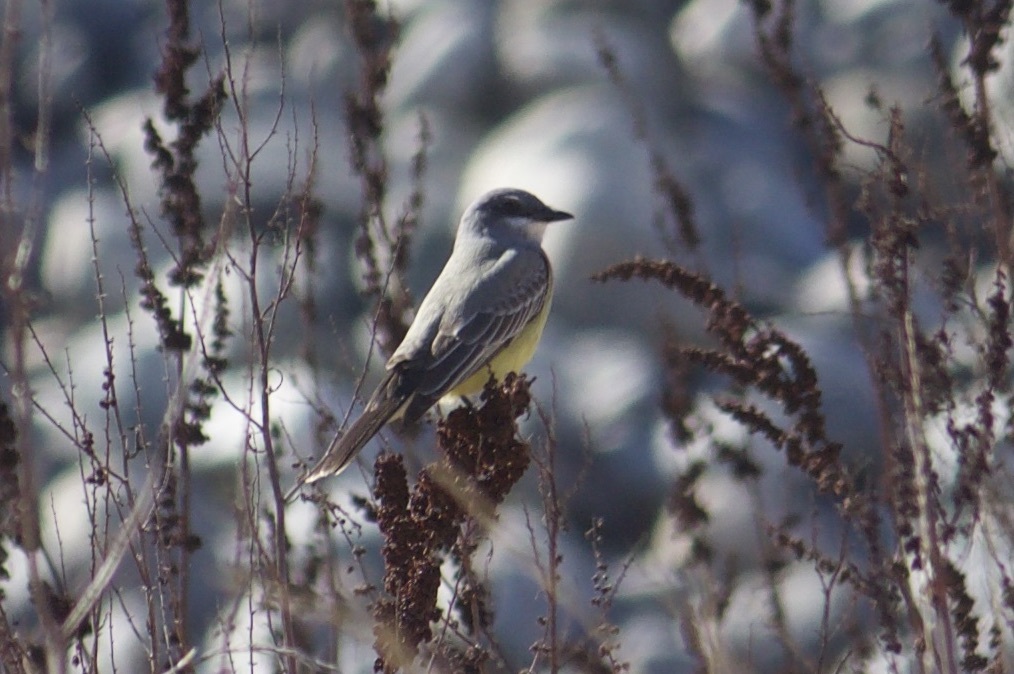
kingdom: Animalia
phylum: Chordata
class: Aves
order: Passeriformes
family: Tyrannidae
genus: Tyrannus
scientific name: Tyrannus vociferans
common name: Cassin's kingbird
